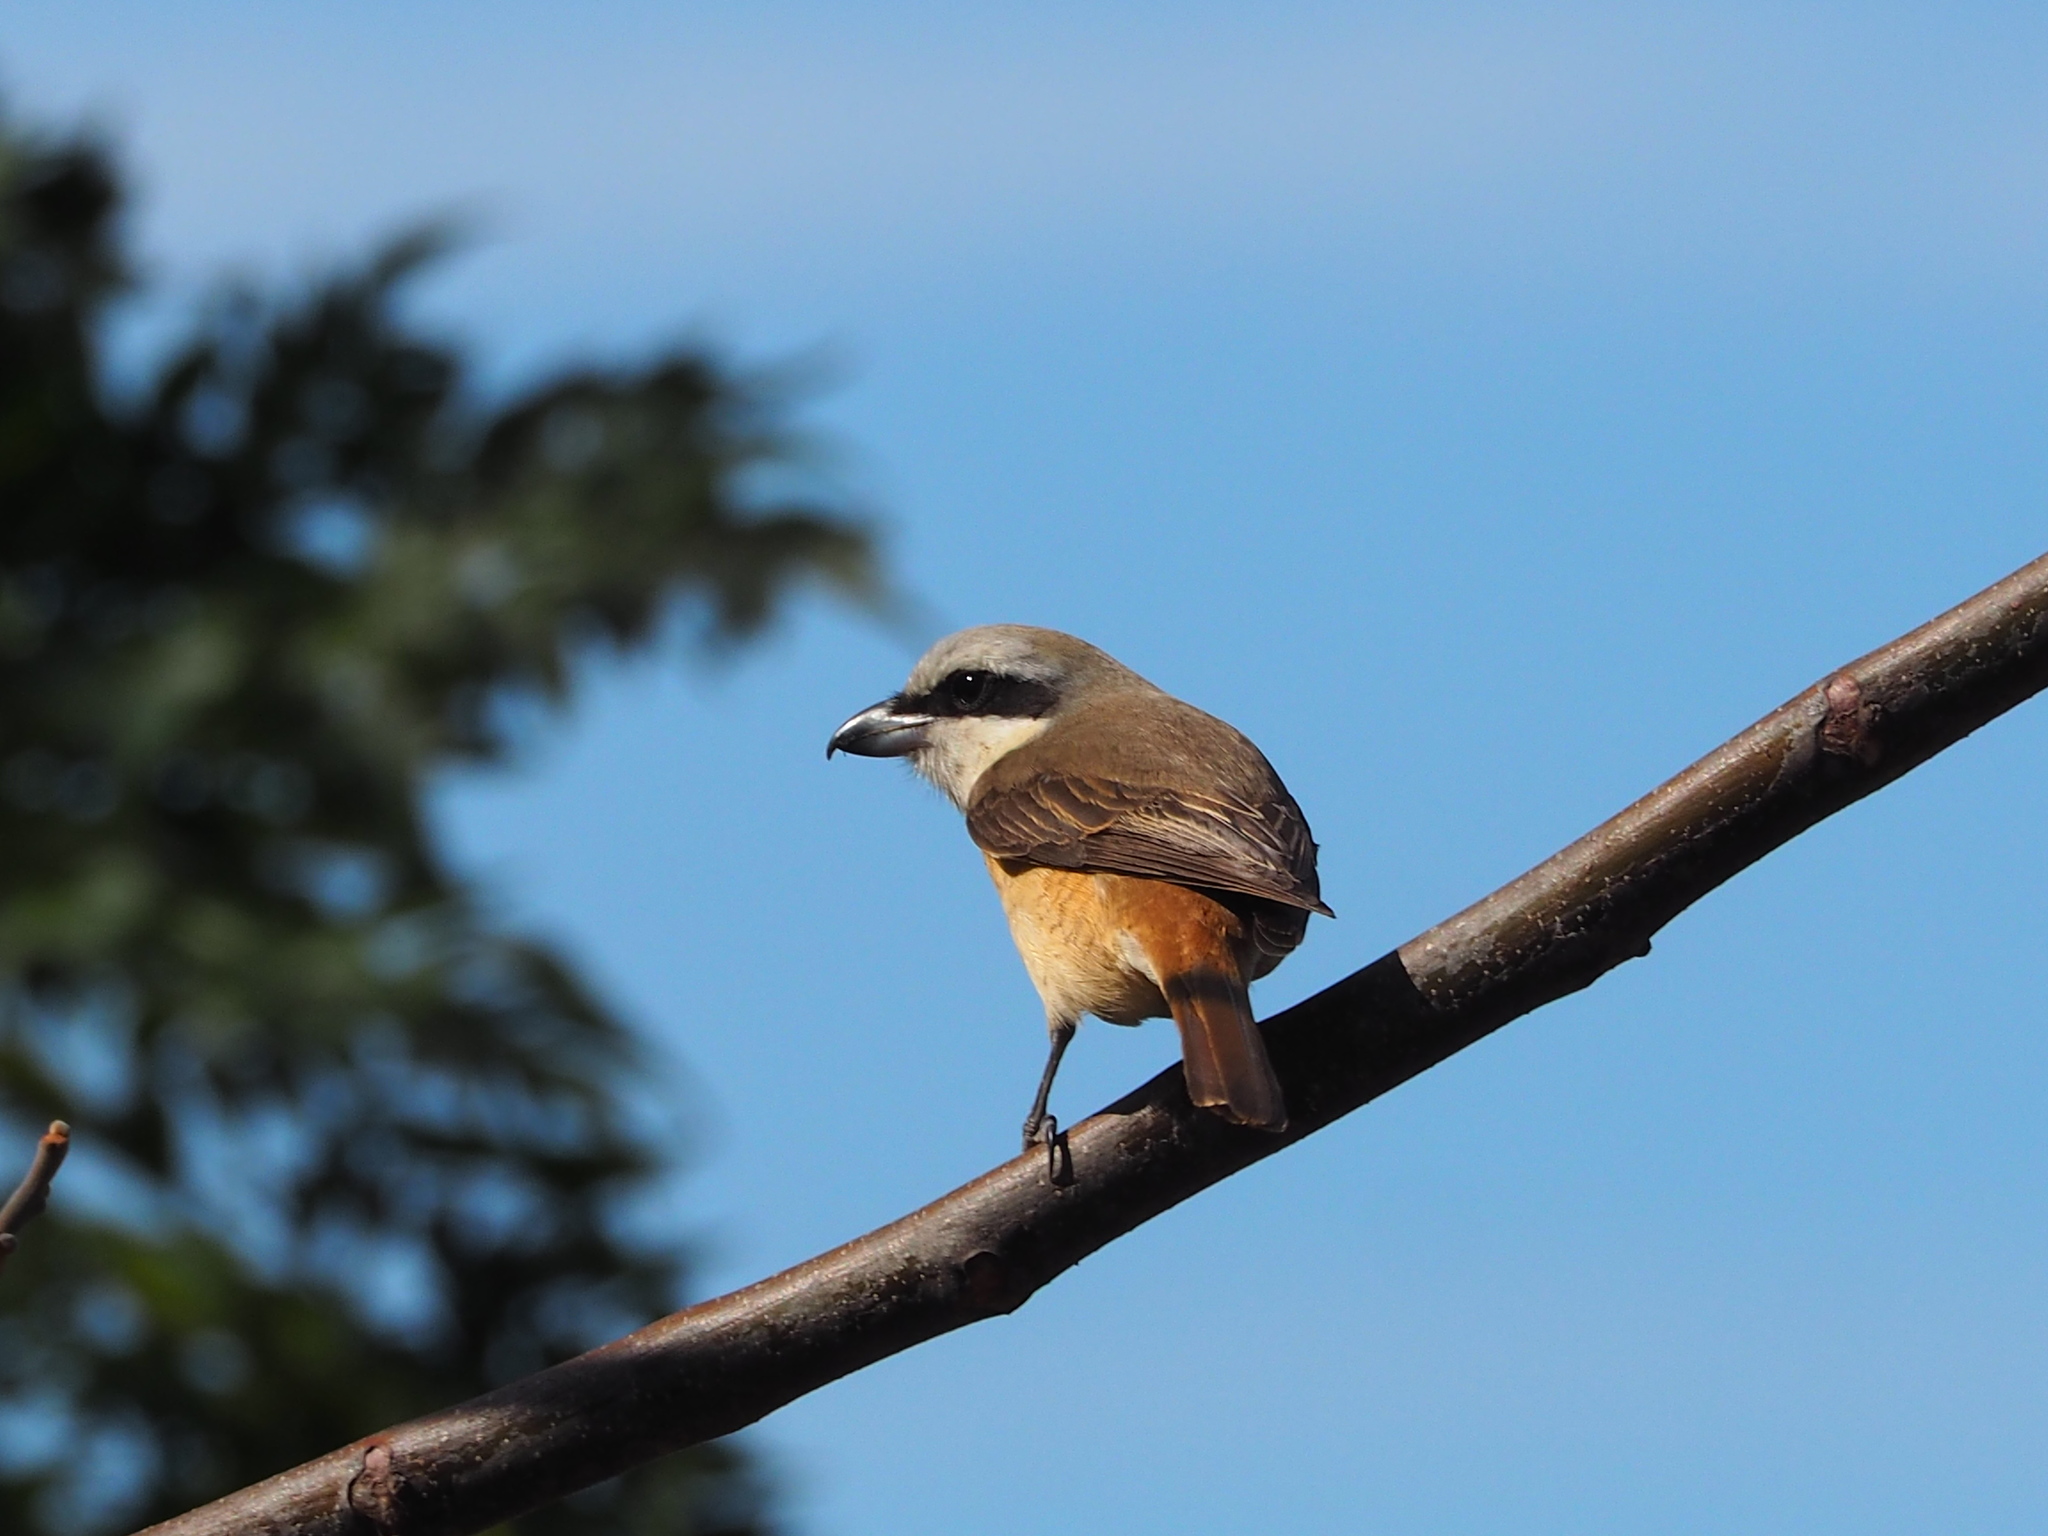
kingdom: Animalia
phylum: Chordata
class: Aves
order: Passeriformes
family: Laniidae
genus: Lanius
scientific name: Lanius cristatus
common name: Brown shrike
